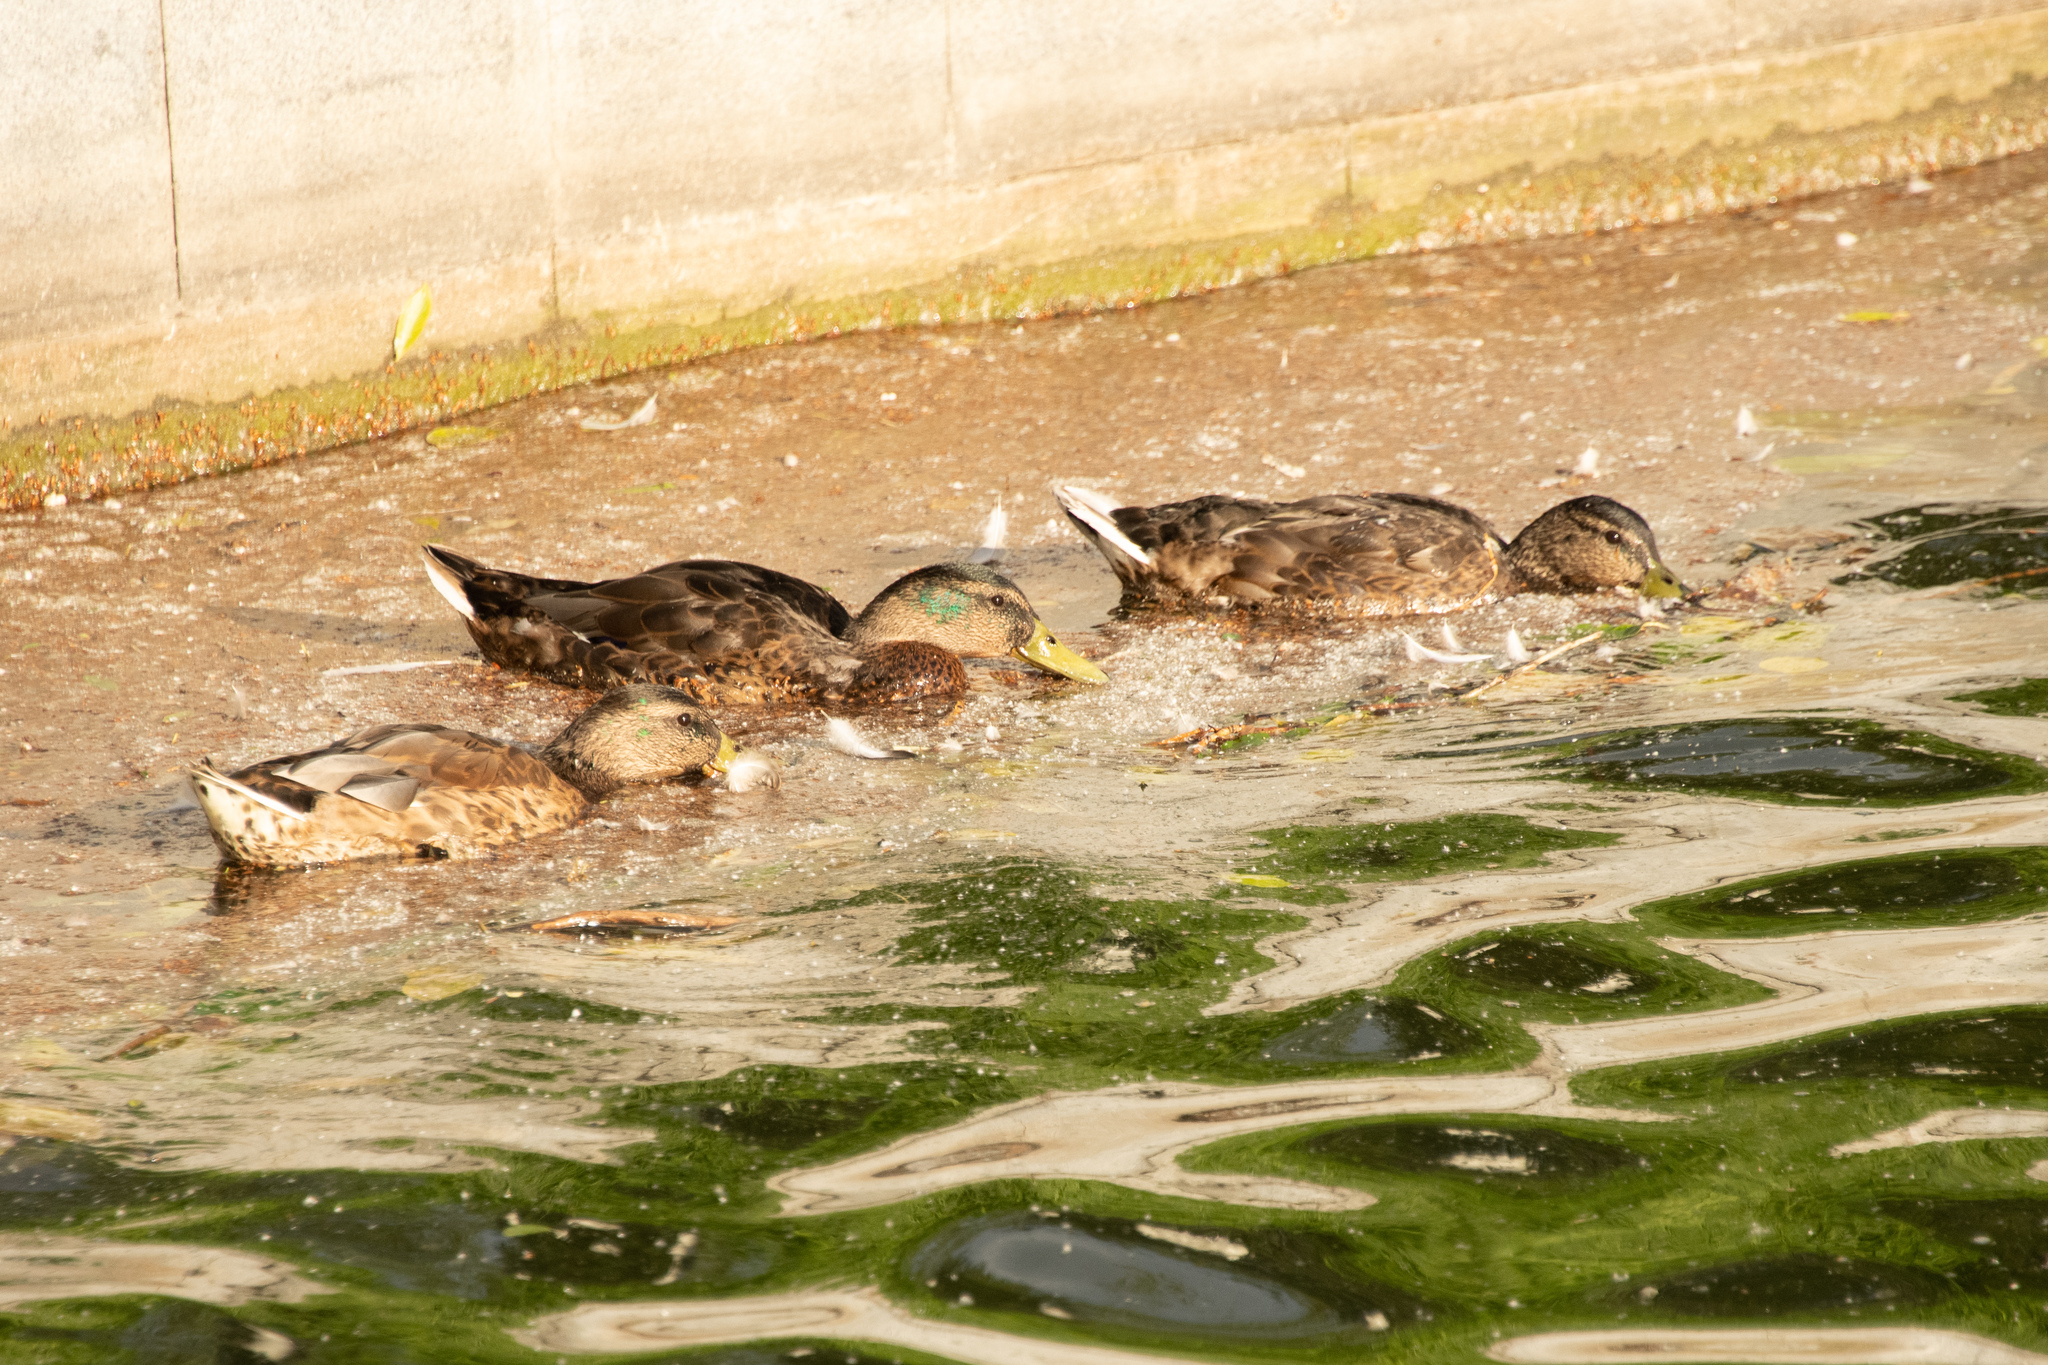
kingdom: Animalia
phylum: Chordata
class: Aves
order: Anseriformes
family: Anatidae
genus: Anas
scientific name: Anas platyrhynchos
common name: Mallard
